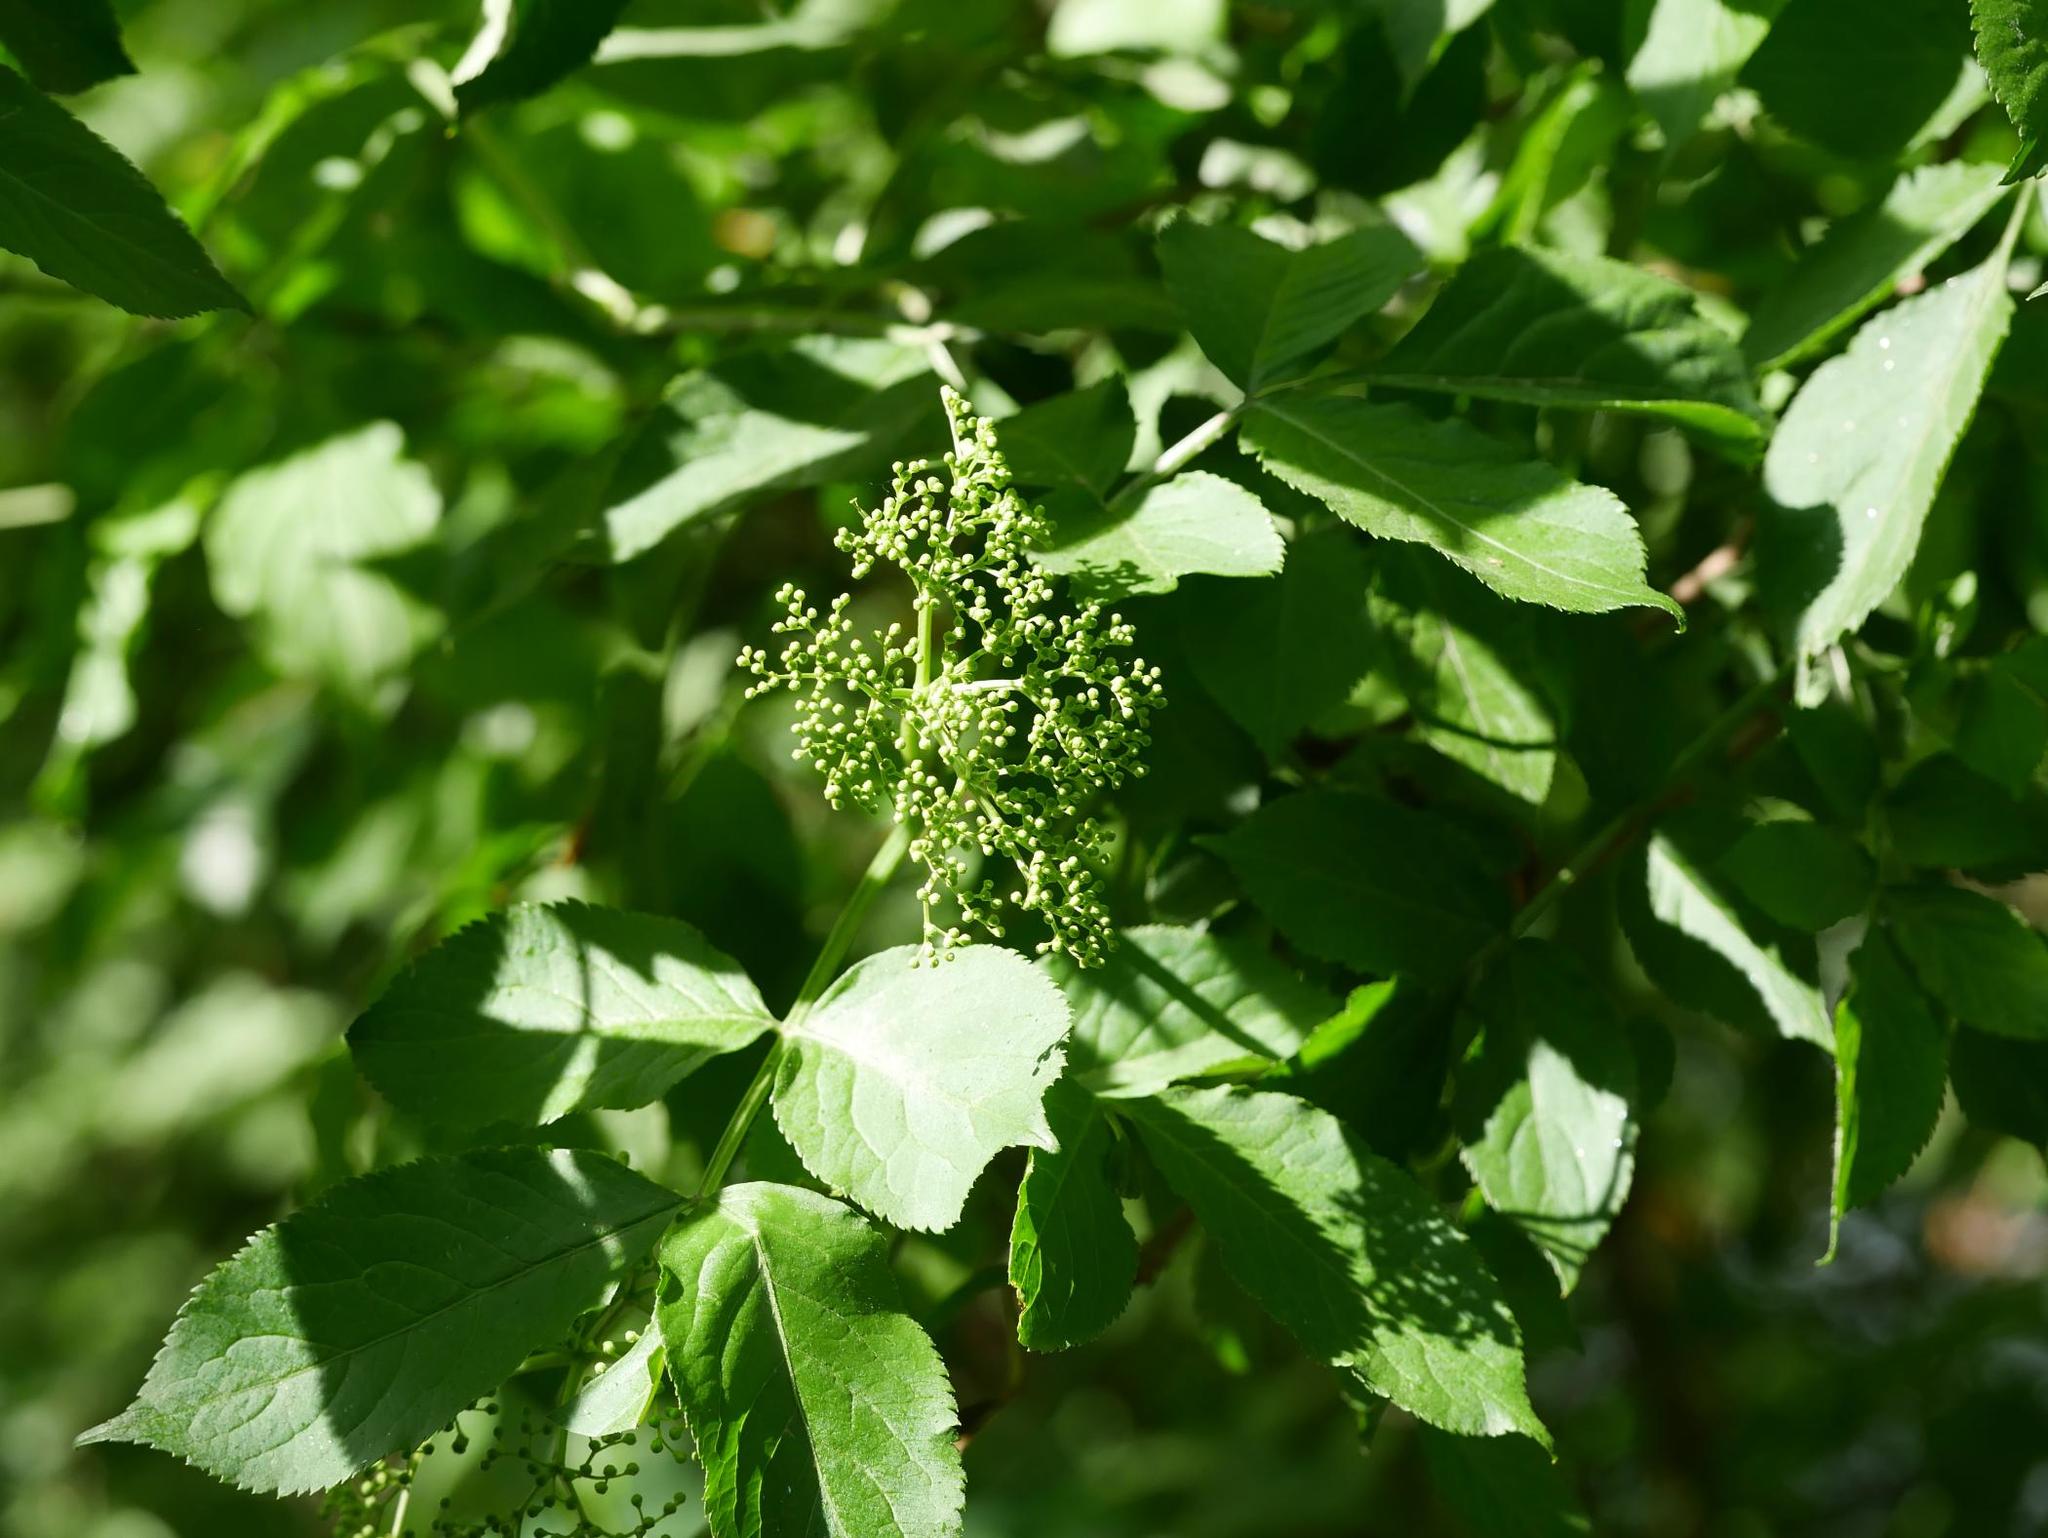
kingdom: Plantae
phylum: Tracheophyta
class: Magnoliopsida
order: Dipsacales
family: Viburnaceae
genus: Sambucus
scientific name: Sambucus nigra
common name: Elder
